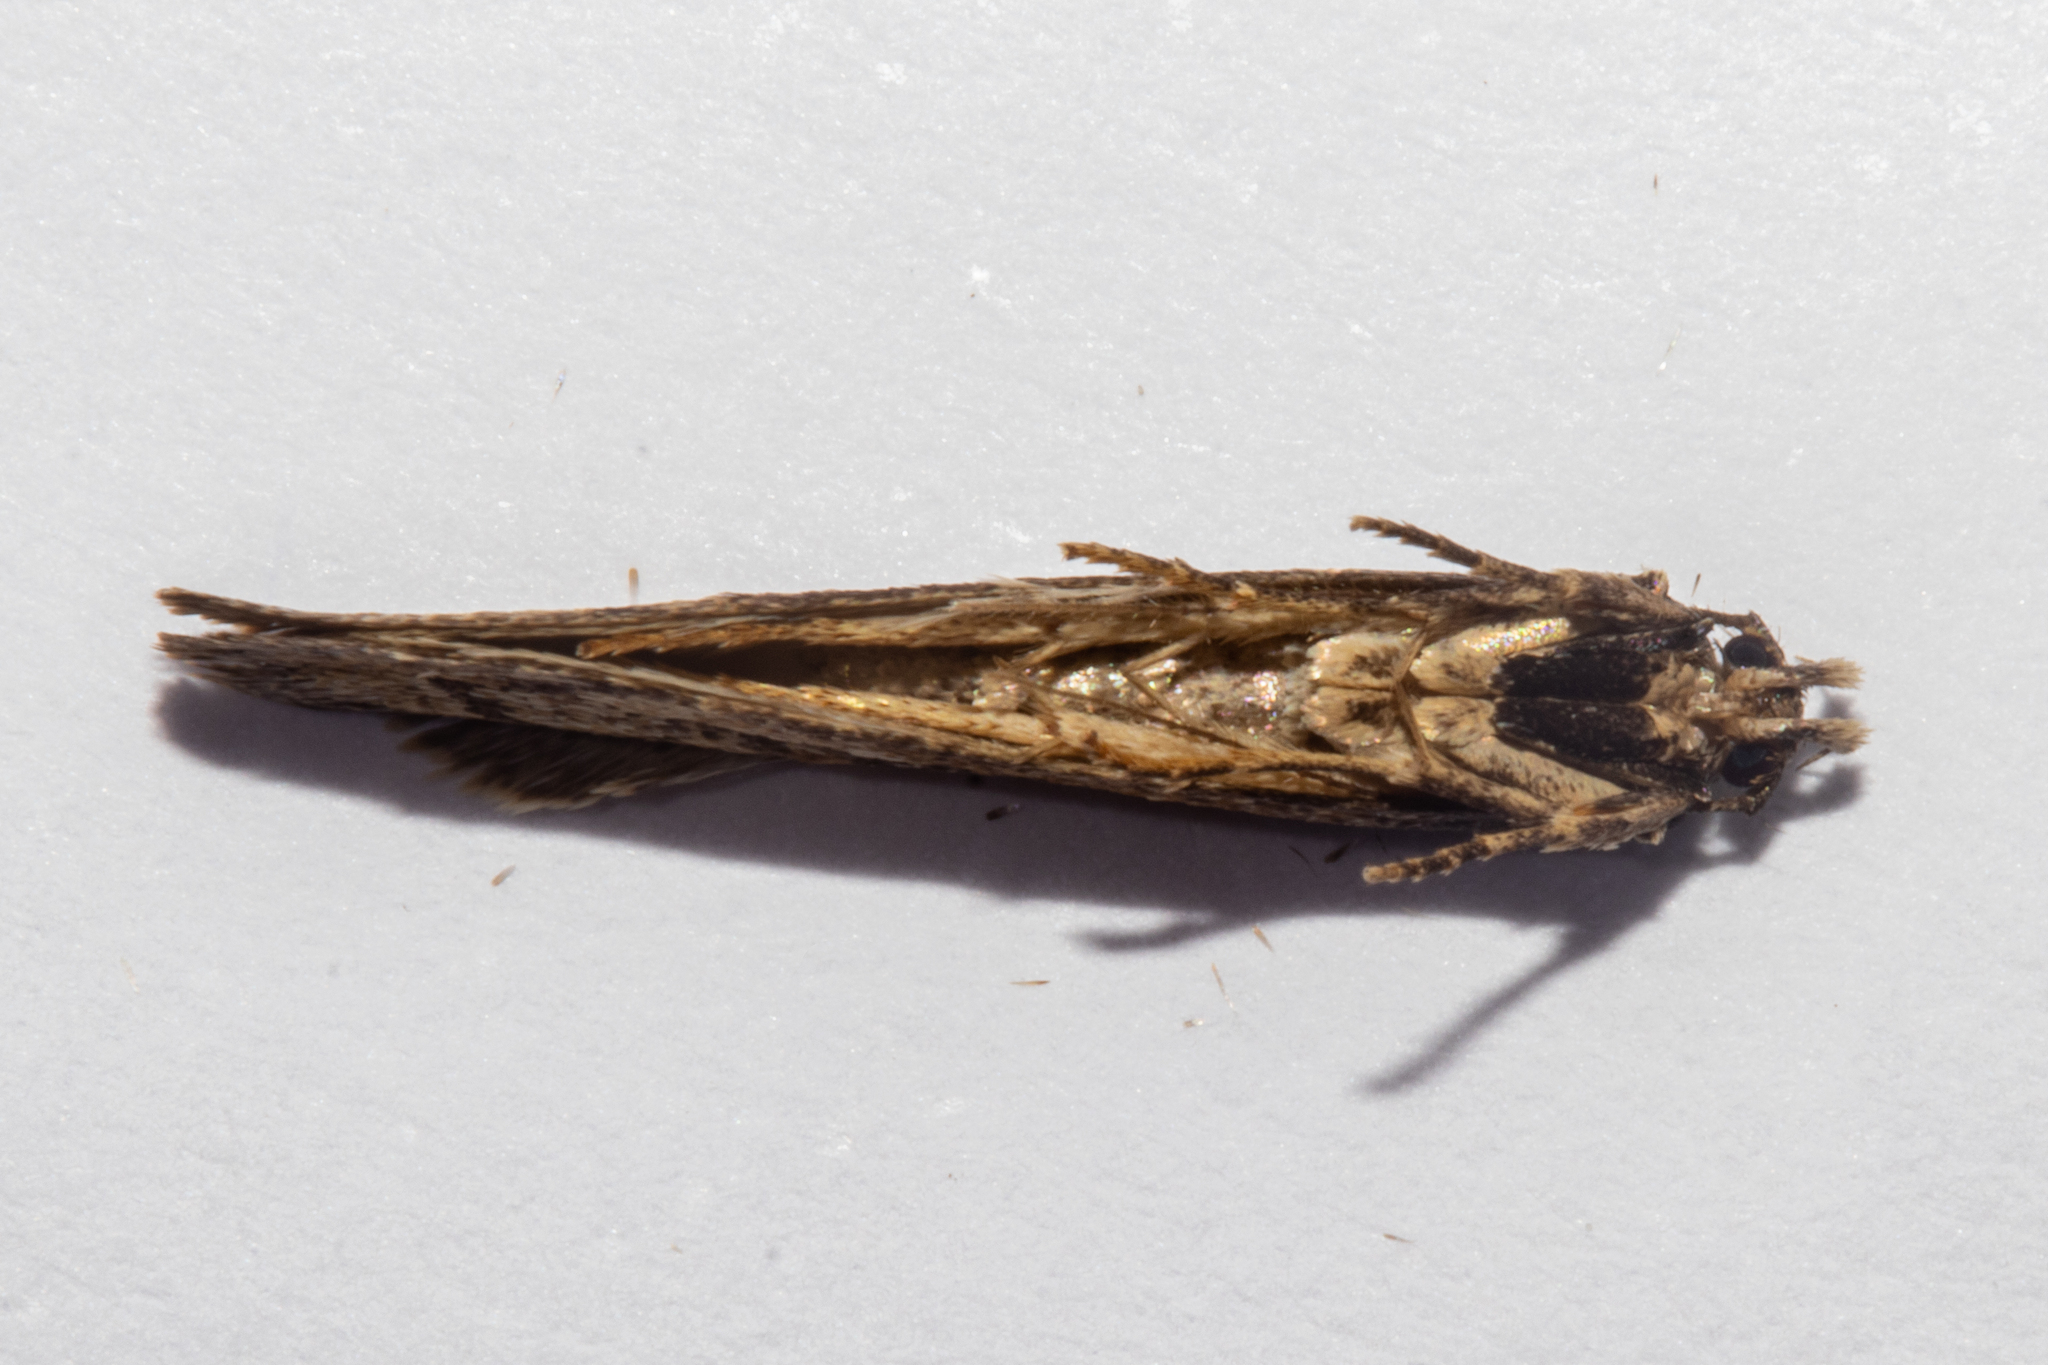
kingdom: Animalia
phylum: Arthropoda
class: Insecta
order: Lepidoptera
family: Oecophoridae
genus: Atomotricha
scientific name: Atomotricha lewisi
